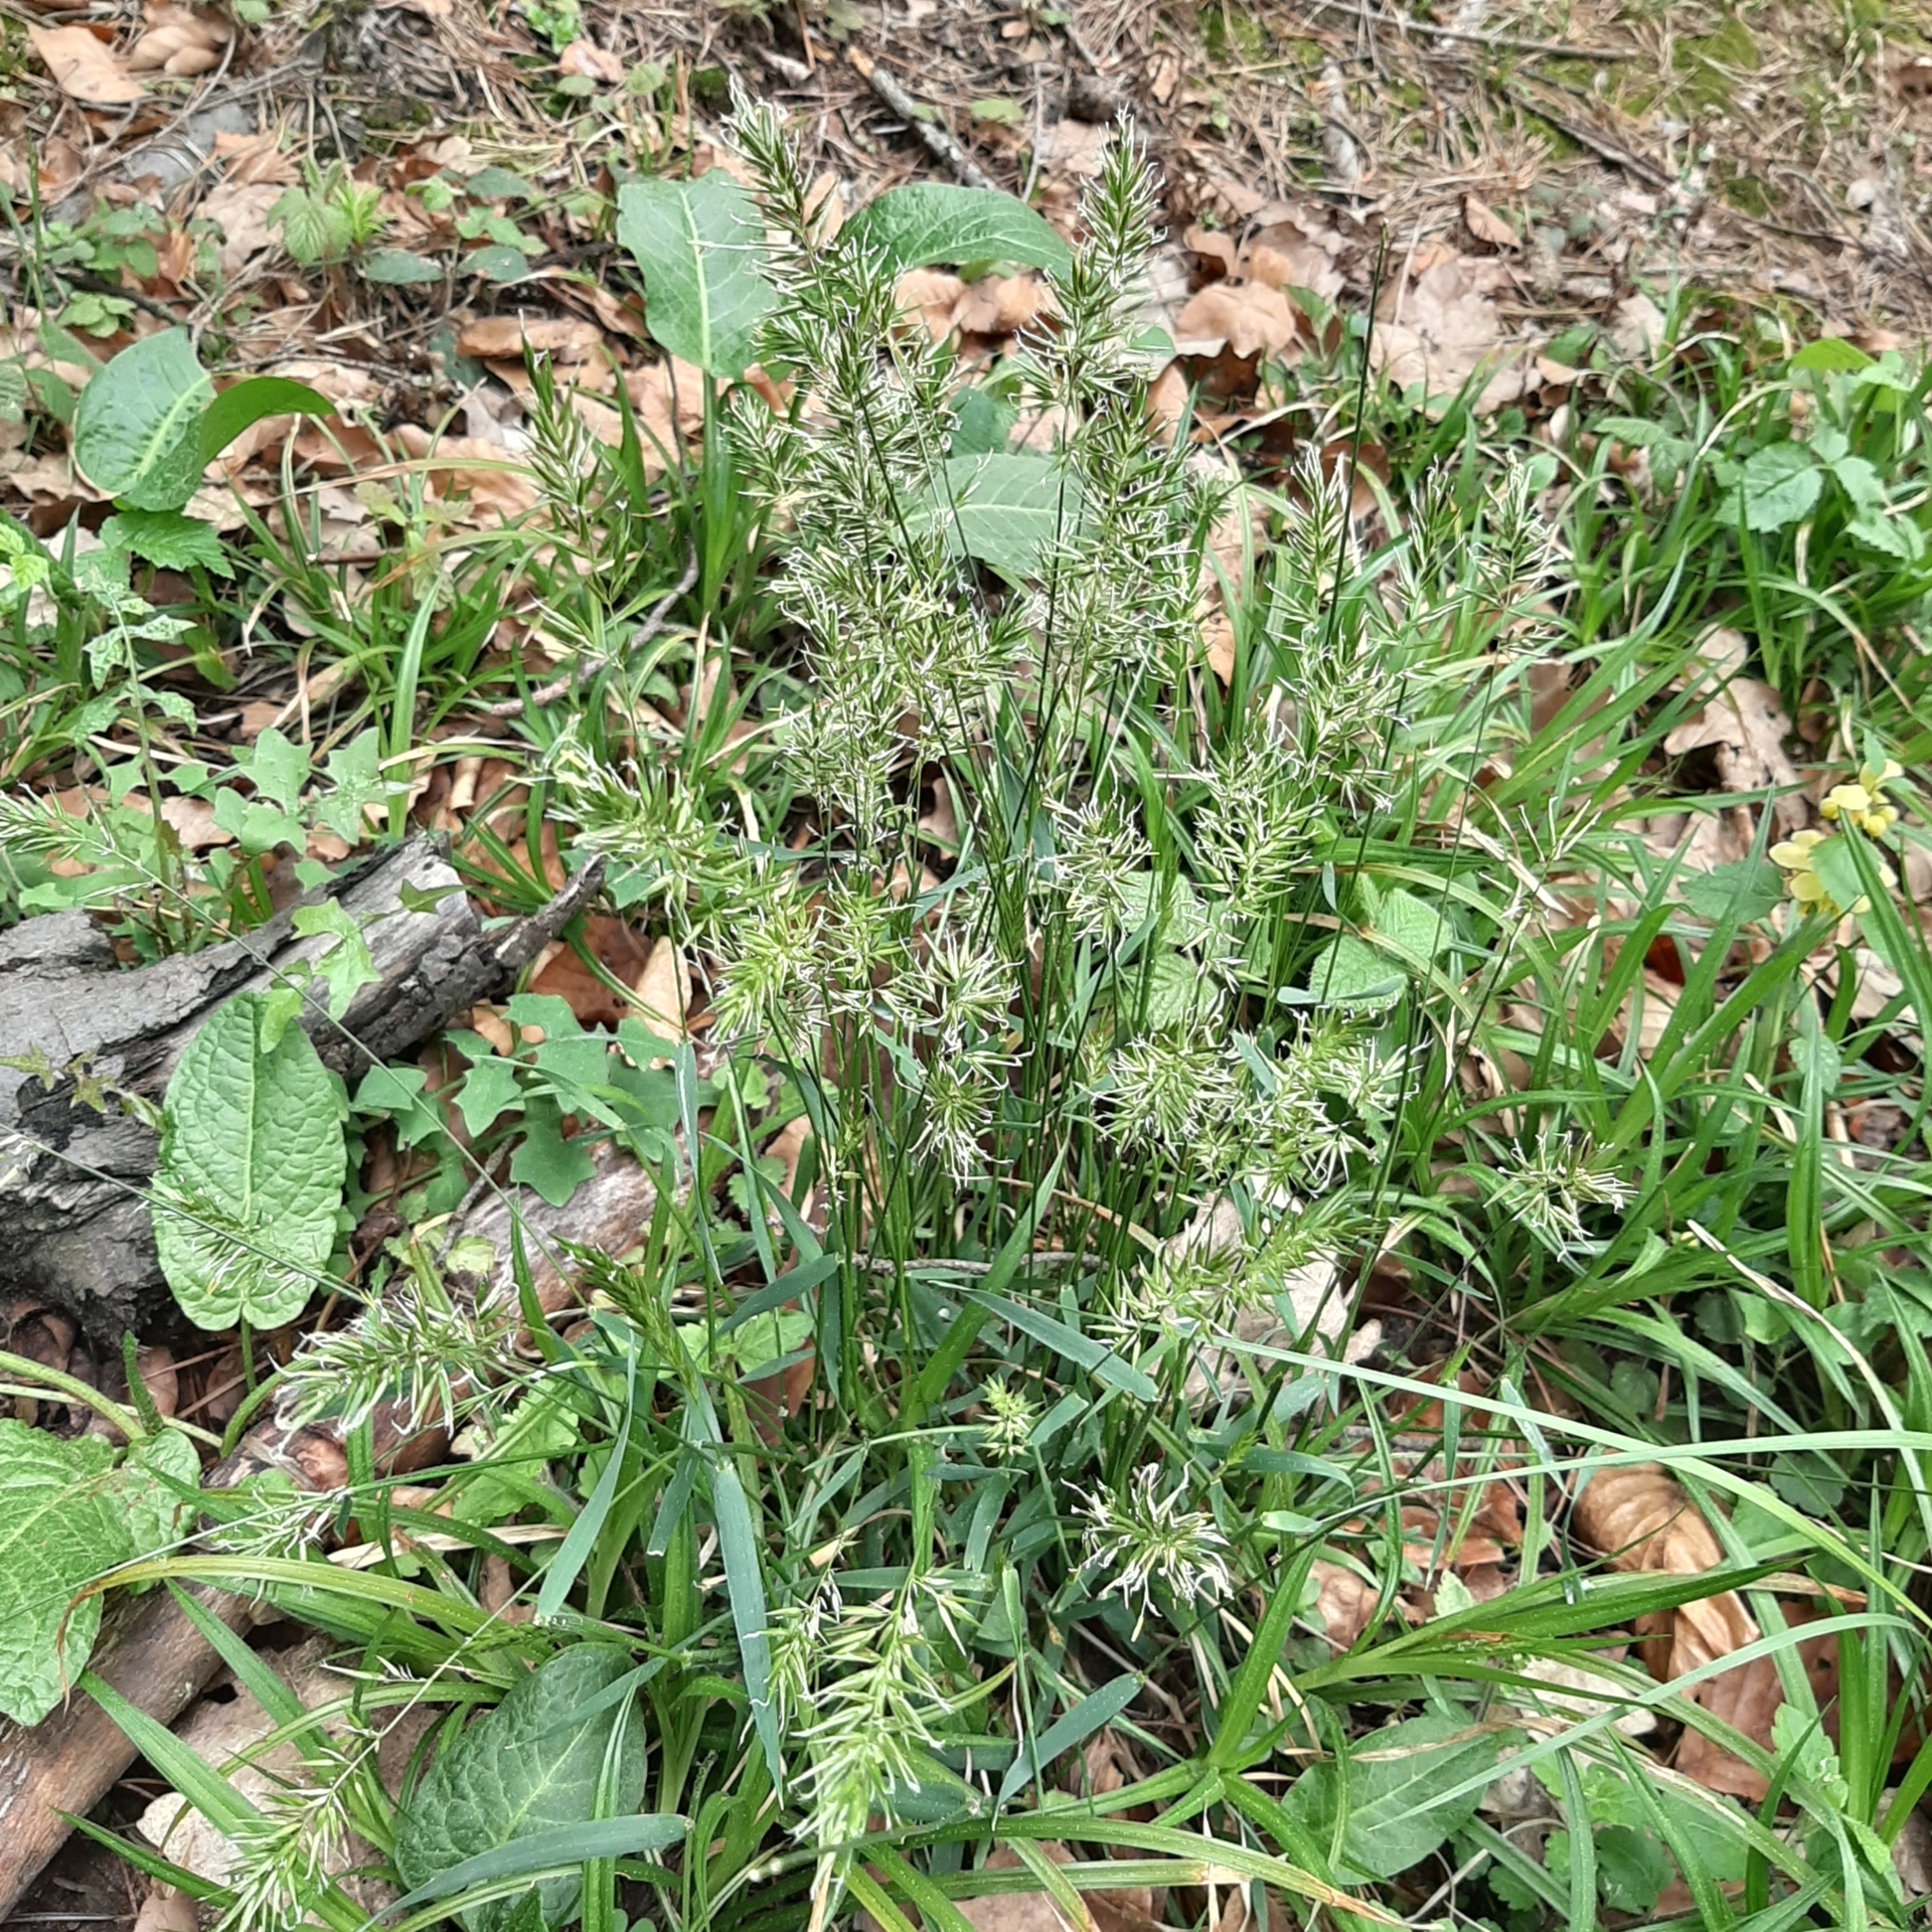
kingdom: Plantae
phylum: Tracheophyta
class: Liliopsida
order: Poales
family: Poaceae
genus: Anthoxanthum
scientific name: Anthoxanthum odoratum
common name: Sweet vernalgrass
